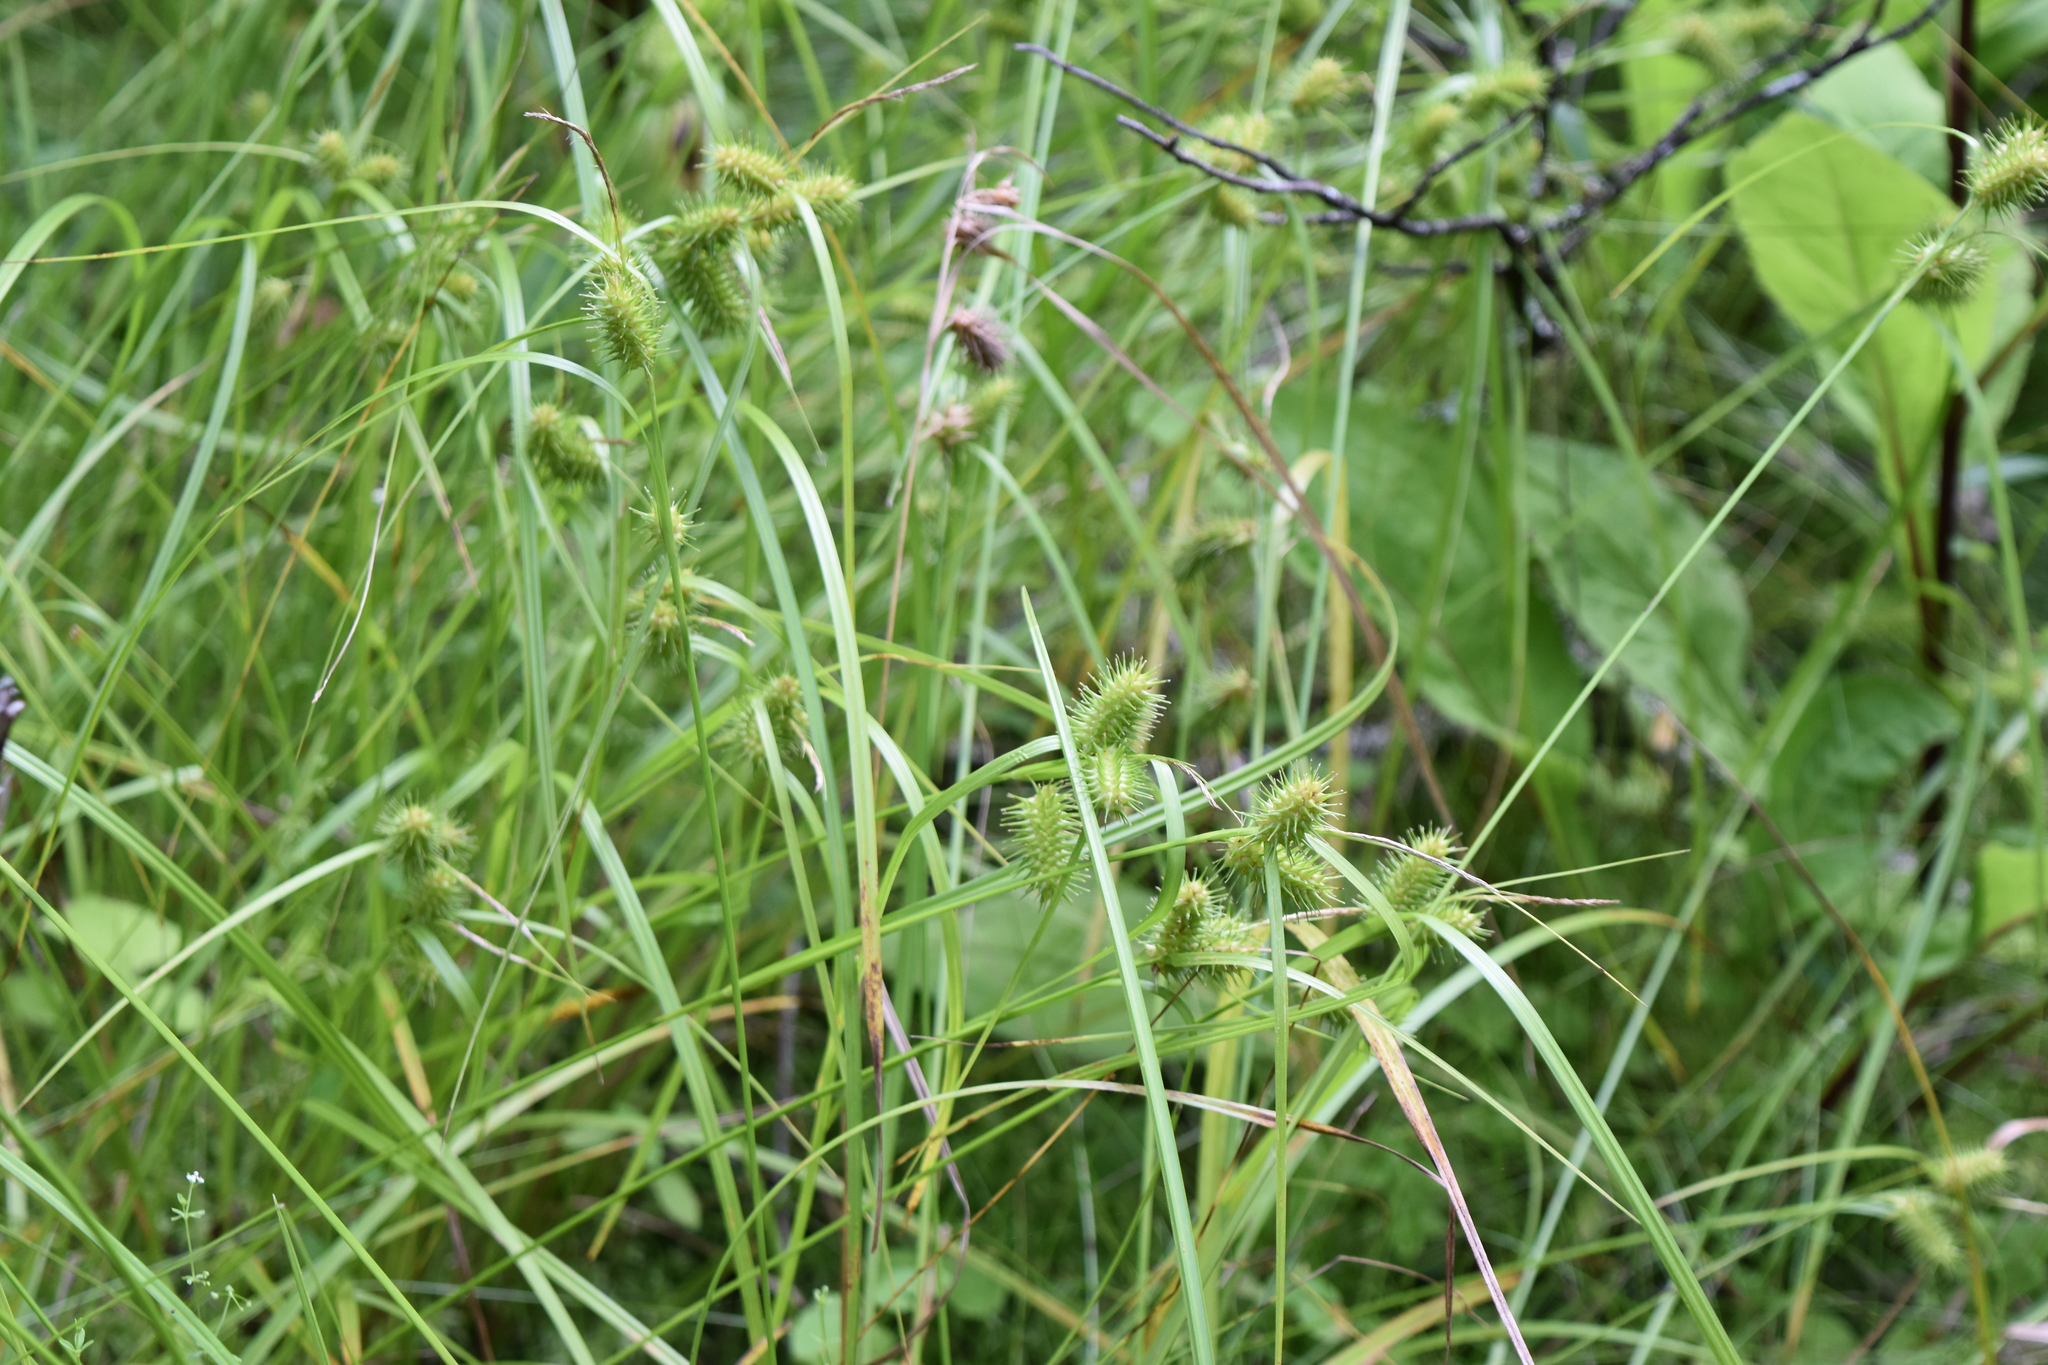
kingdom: Plantae
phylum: Tracheophyta
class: Liliopsida
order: Poales
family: Cyperaceae
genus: Carex
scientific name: Carex lurida
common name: Sallow sedge
